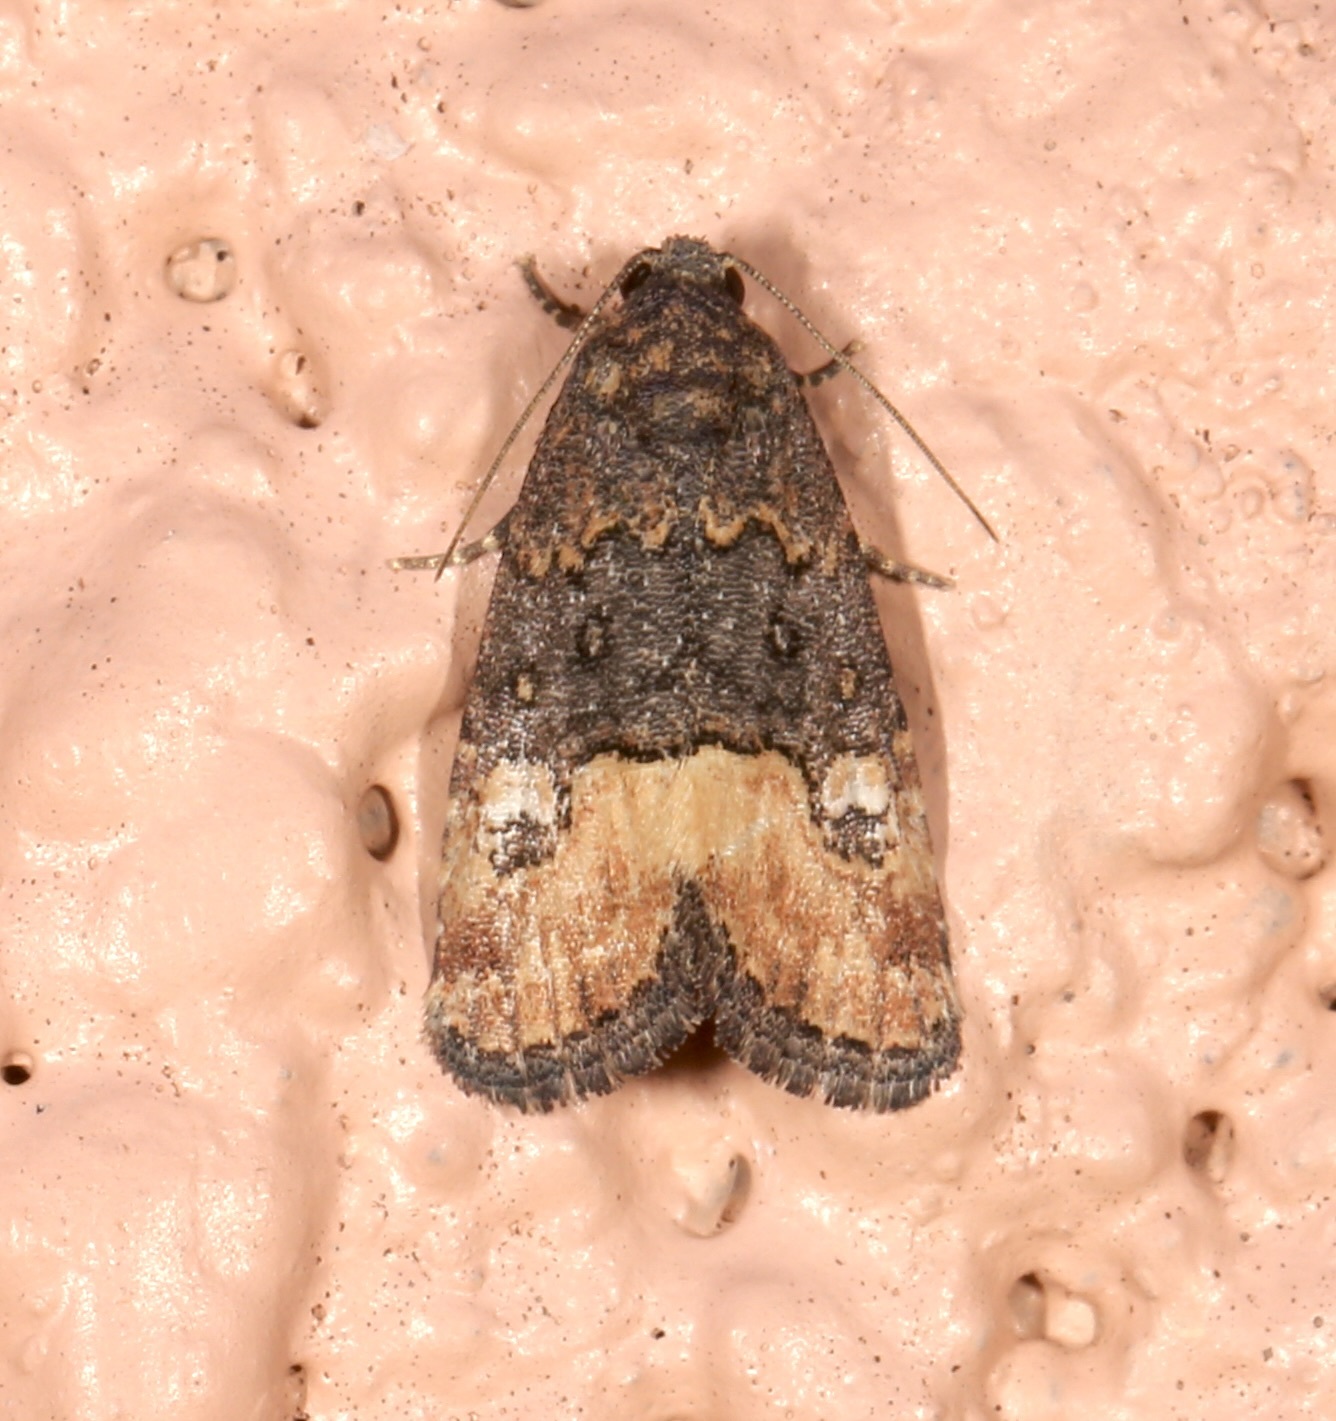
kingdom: Animalia
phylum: Arthropoda
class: Insecta
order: Lepidoptera
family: Noctuidae
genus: Ozarba
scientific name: Ozarba propera
